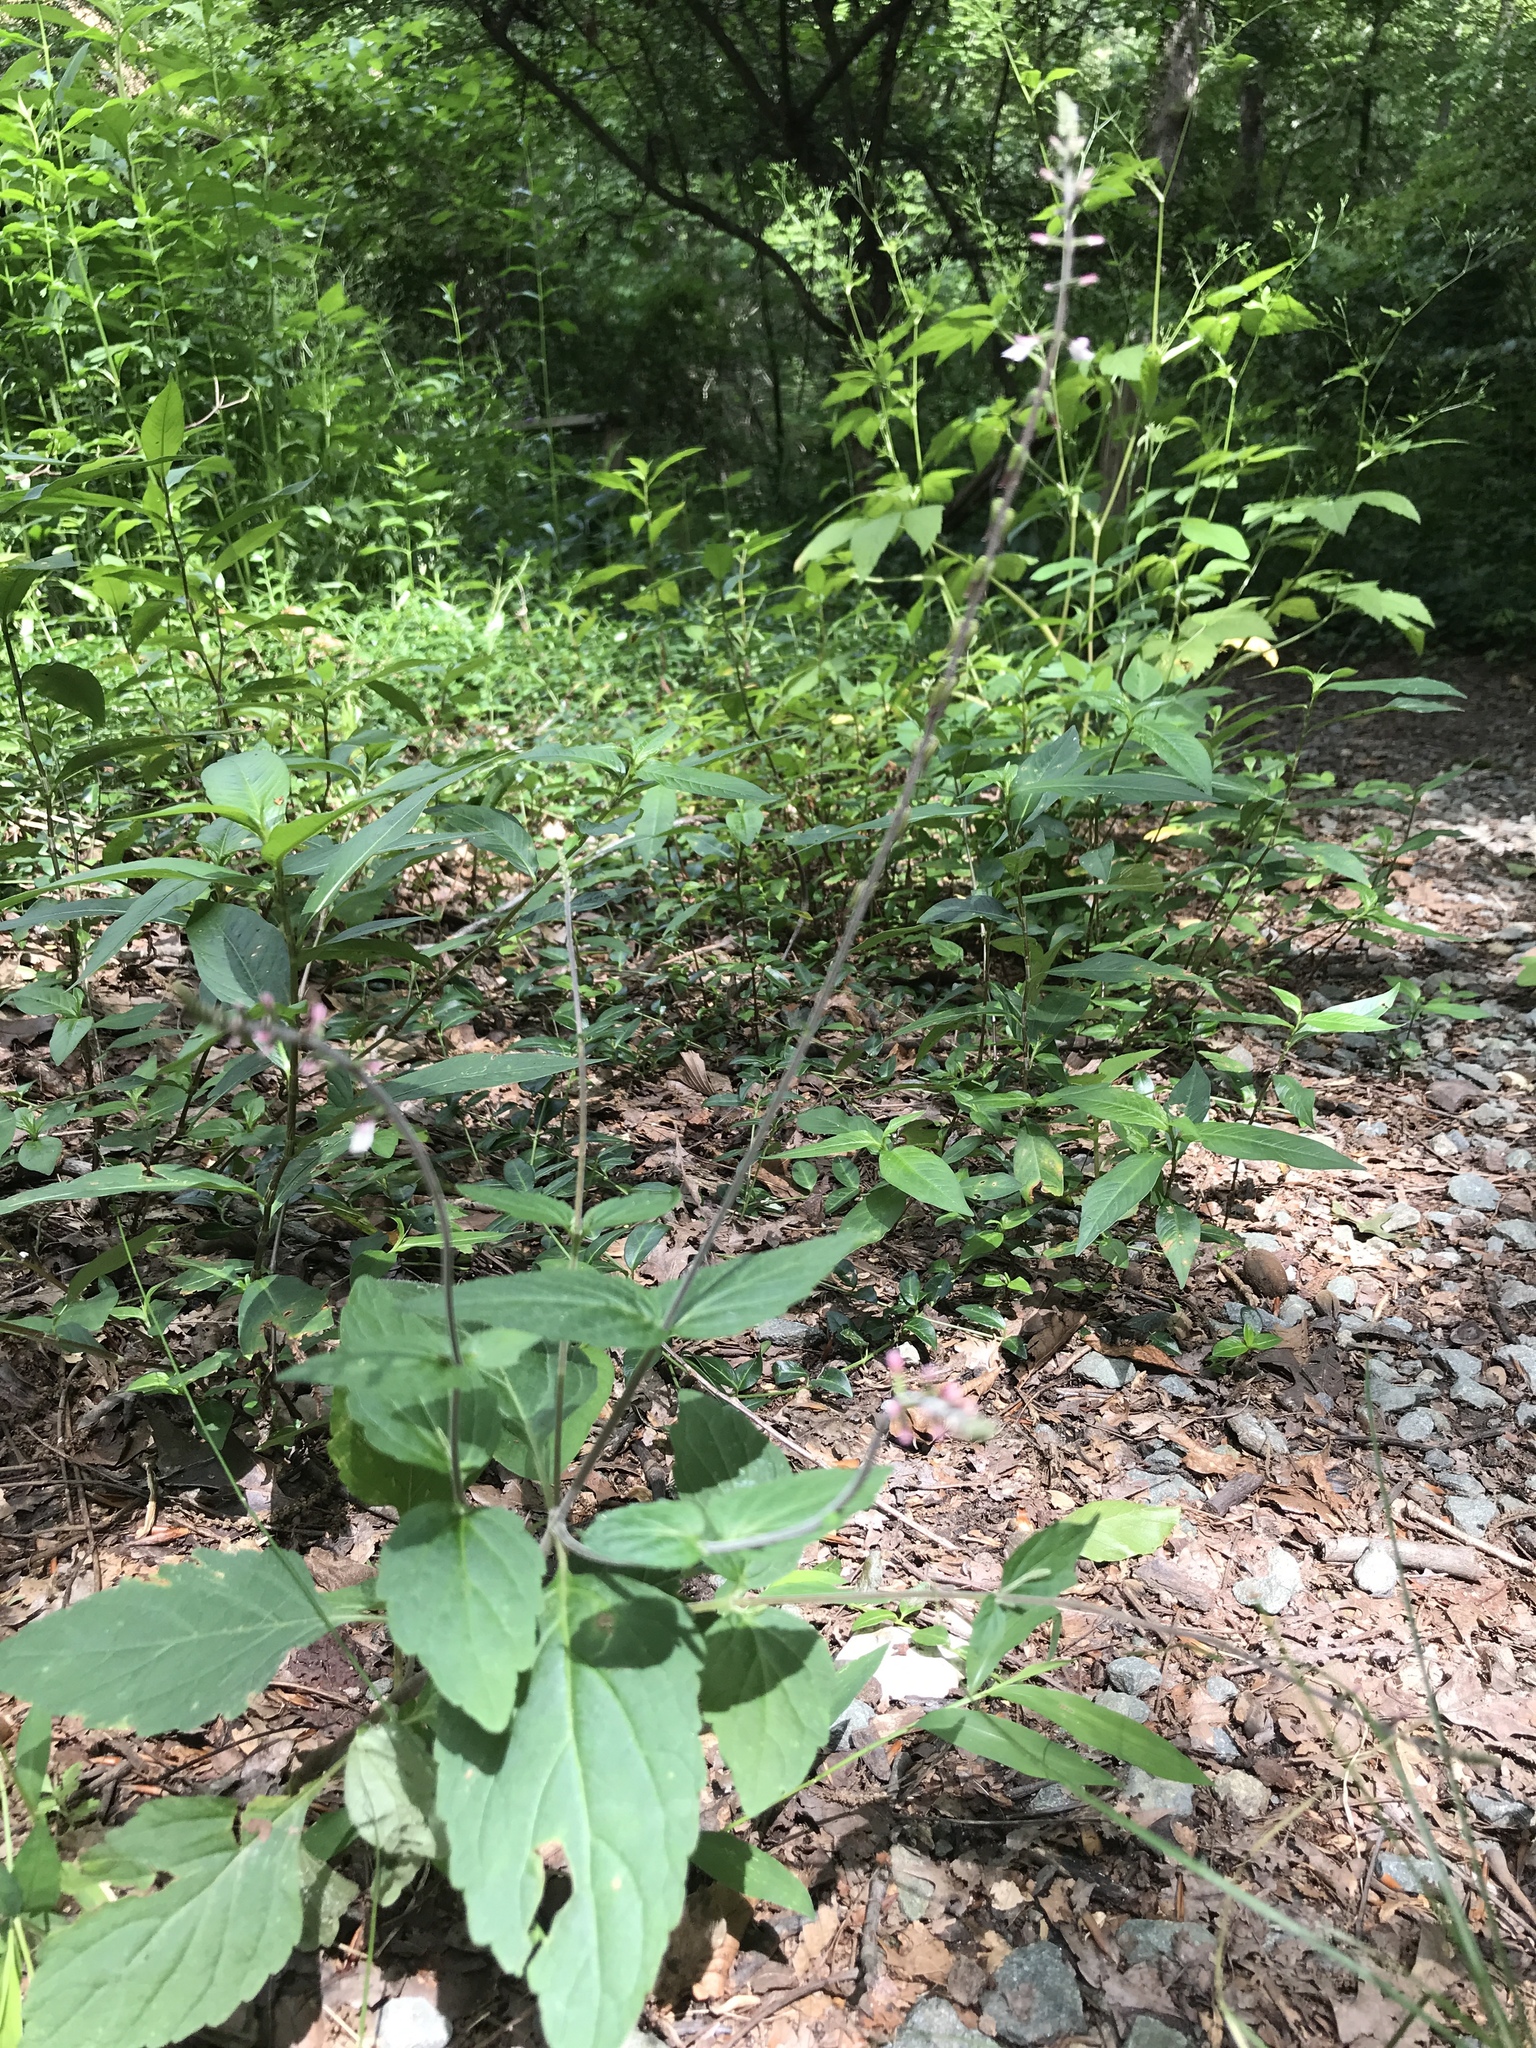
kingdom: Plantae
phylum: Tracheophyta
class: Magnoliopsida
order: Lamiales
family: Phrymaceae
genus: Phryma
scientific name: Phryma leptostachya
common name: American lopseed
